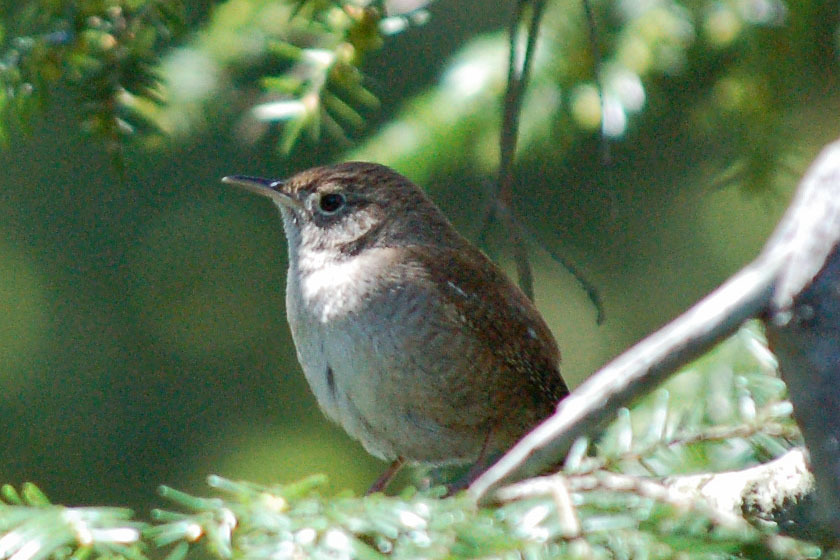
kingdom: Animalia
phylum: Chordata
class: Aves
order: Passeriformes
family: Troglodytidae
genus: Troglodytes
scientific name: Troglodytes aedon
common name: House wren
